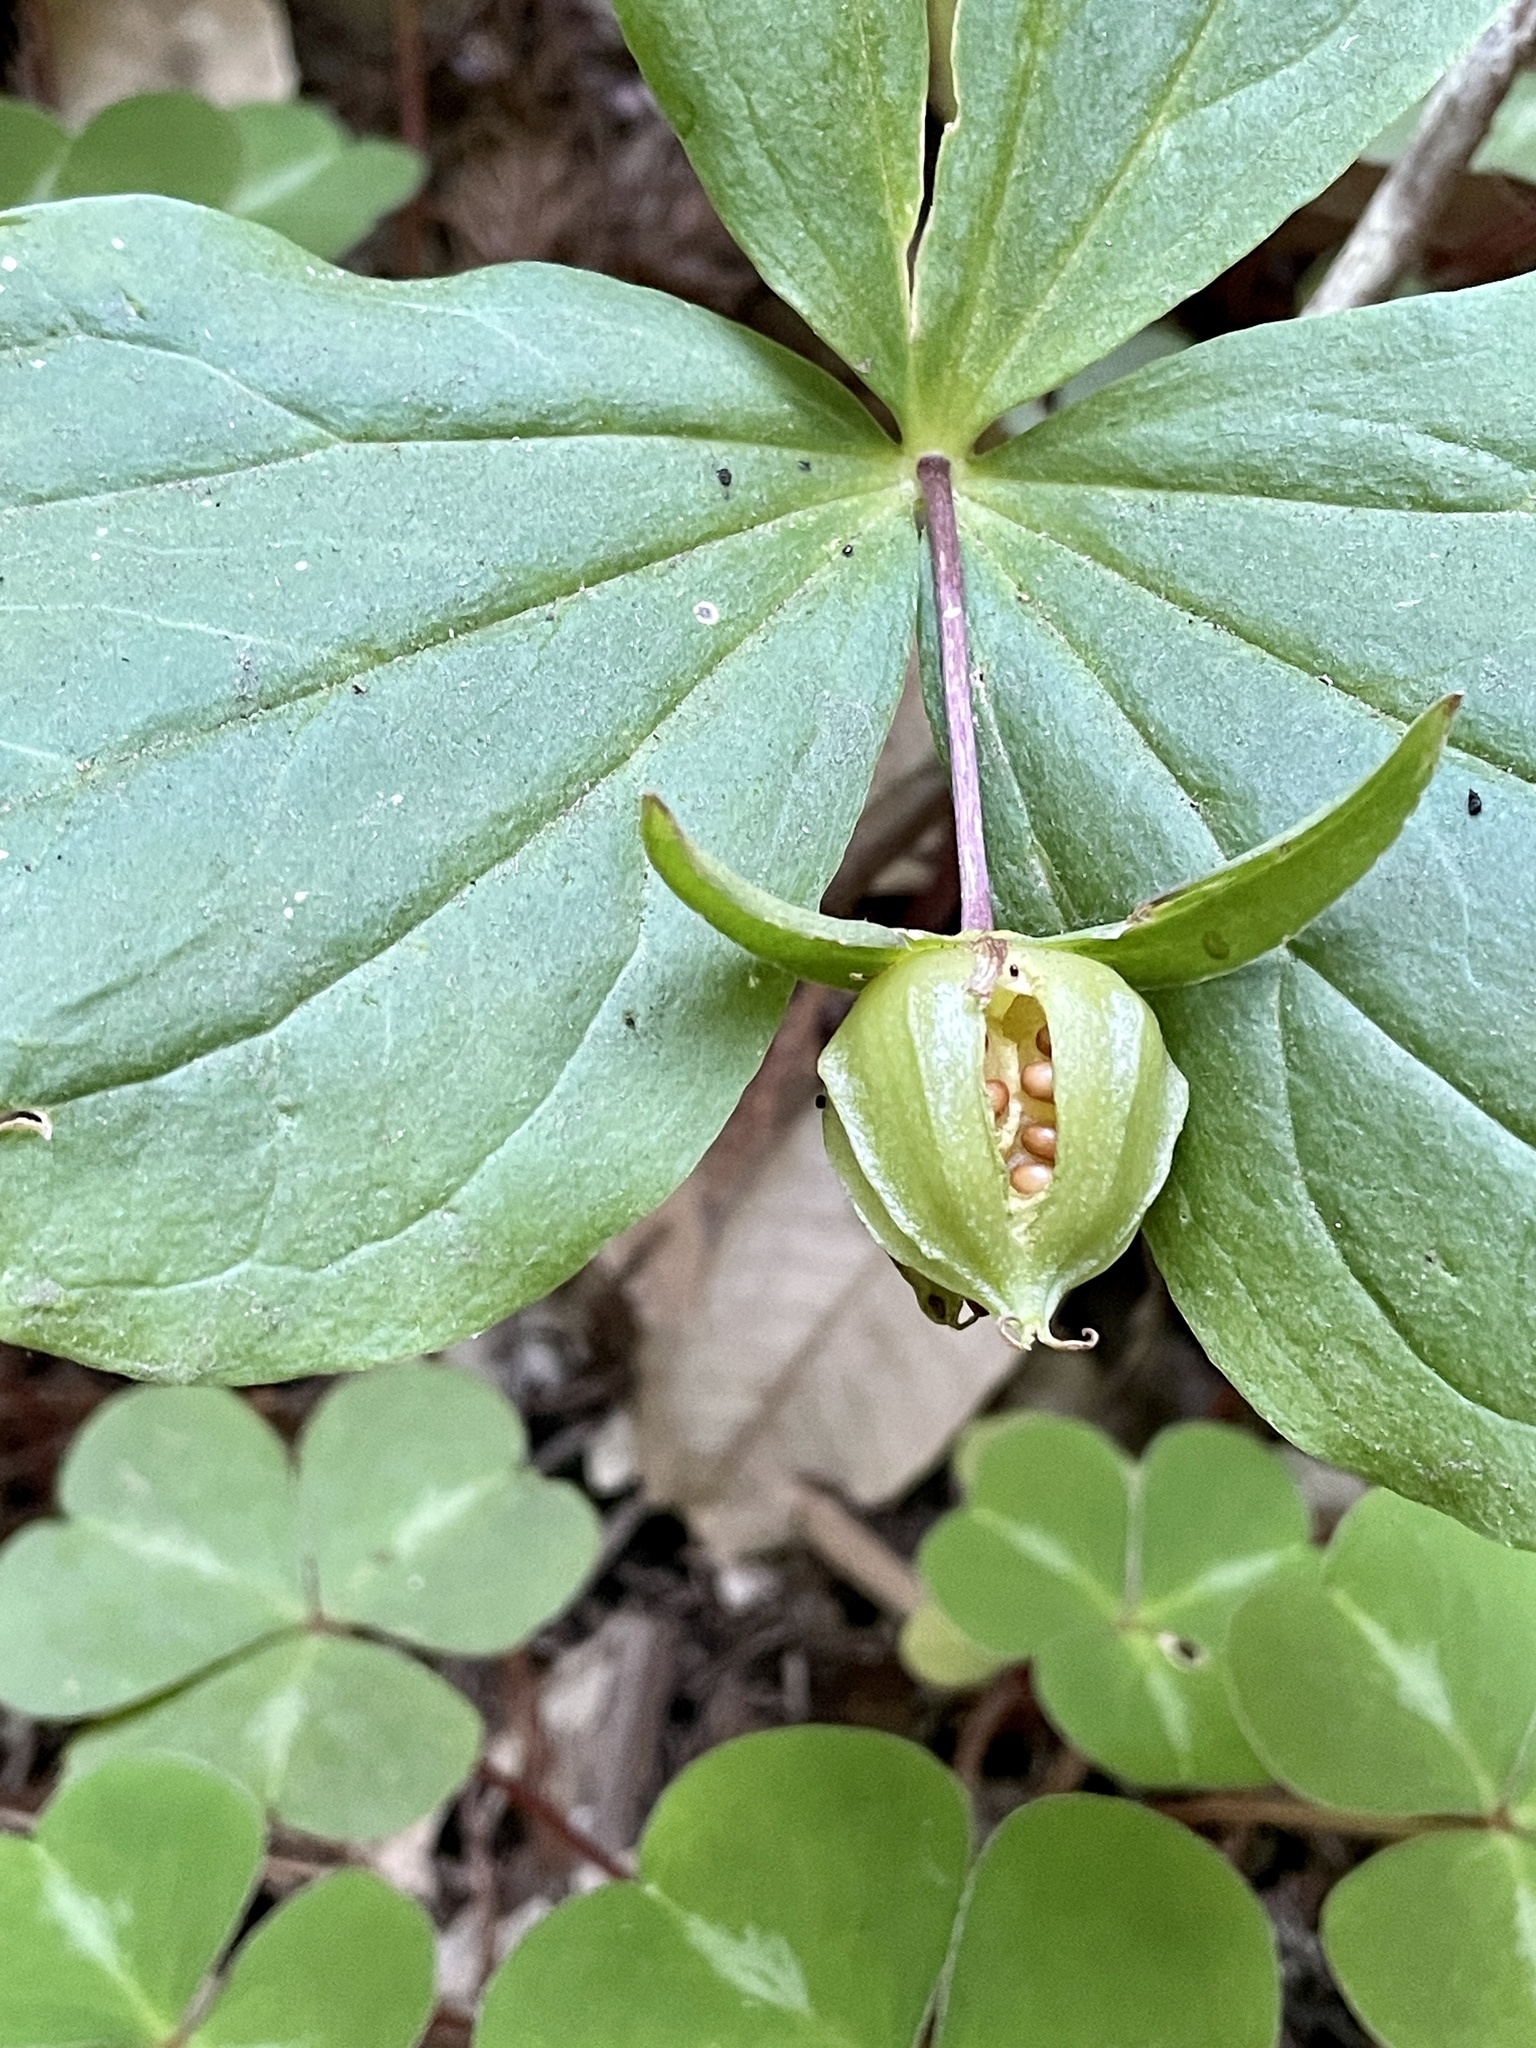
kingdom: Plantae
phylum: Tracheophyta
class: Liliopsida
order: Liliales
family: Melanthiaceae
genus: Trillium
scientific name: Trillium ovatum
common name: Pacific trillium
